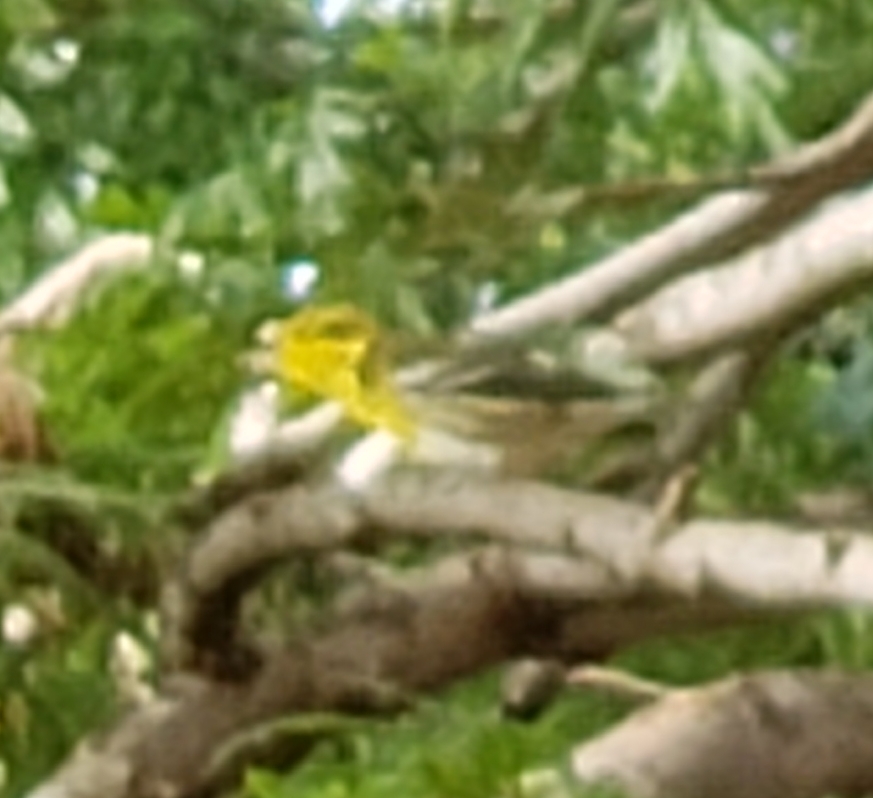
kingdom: Animalia
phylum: Chordata
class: Aves
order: Passeriformes
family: Parulidae
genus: Setophaga
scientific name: Setophaga townsendi
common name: Townsend's warbler
